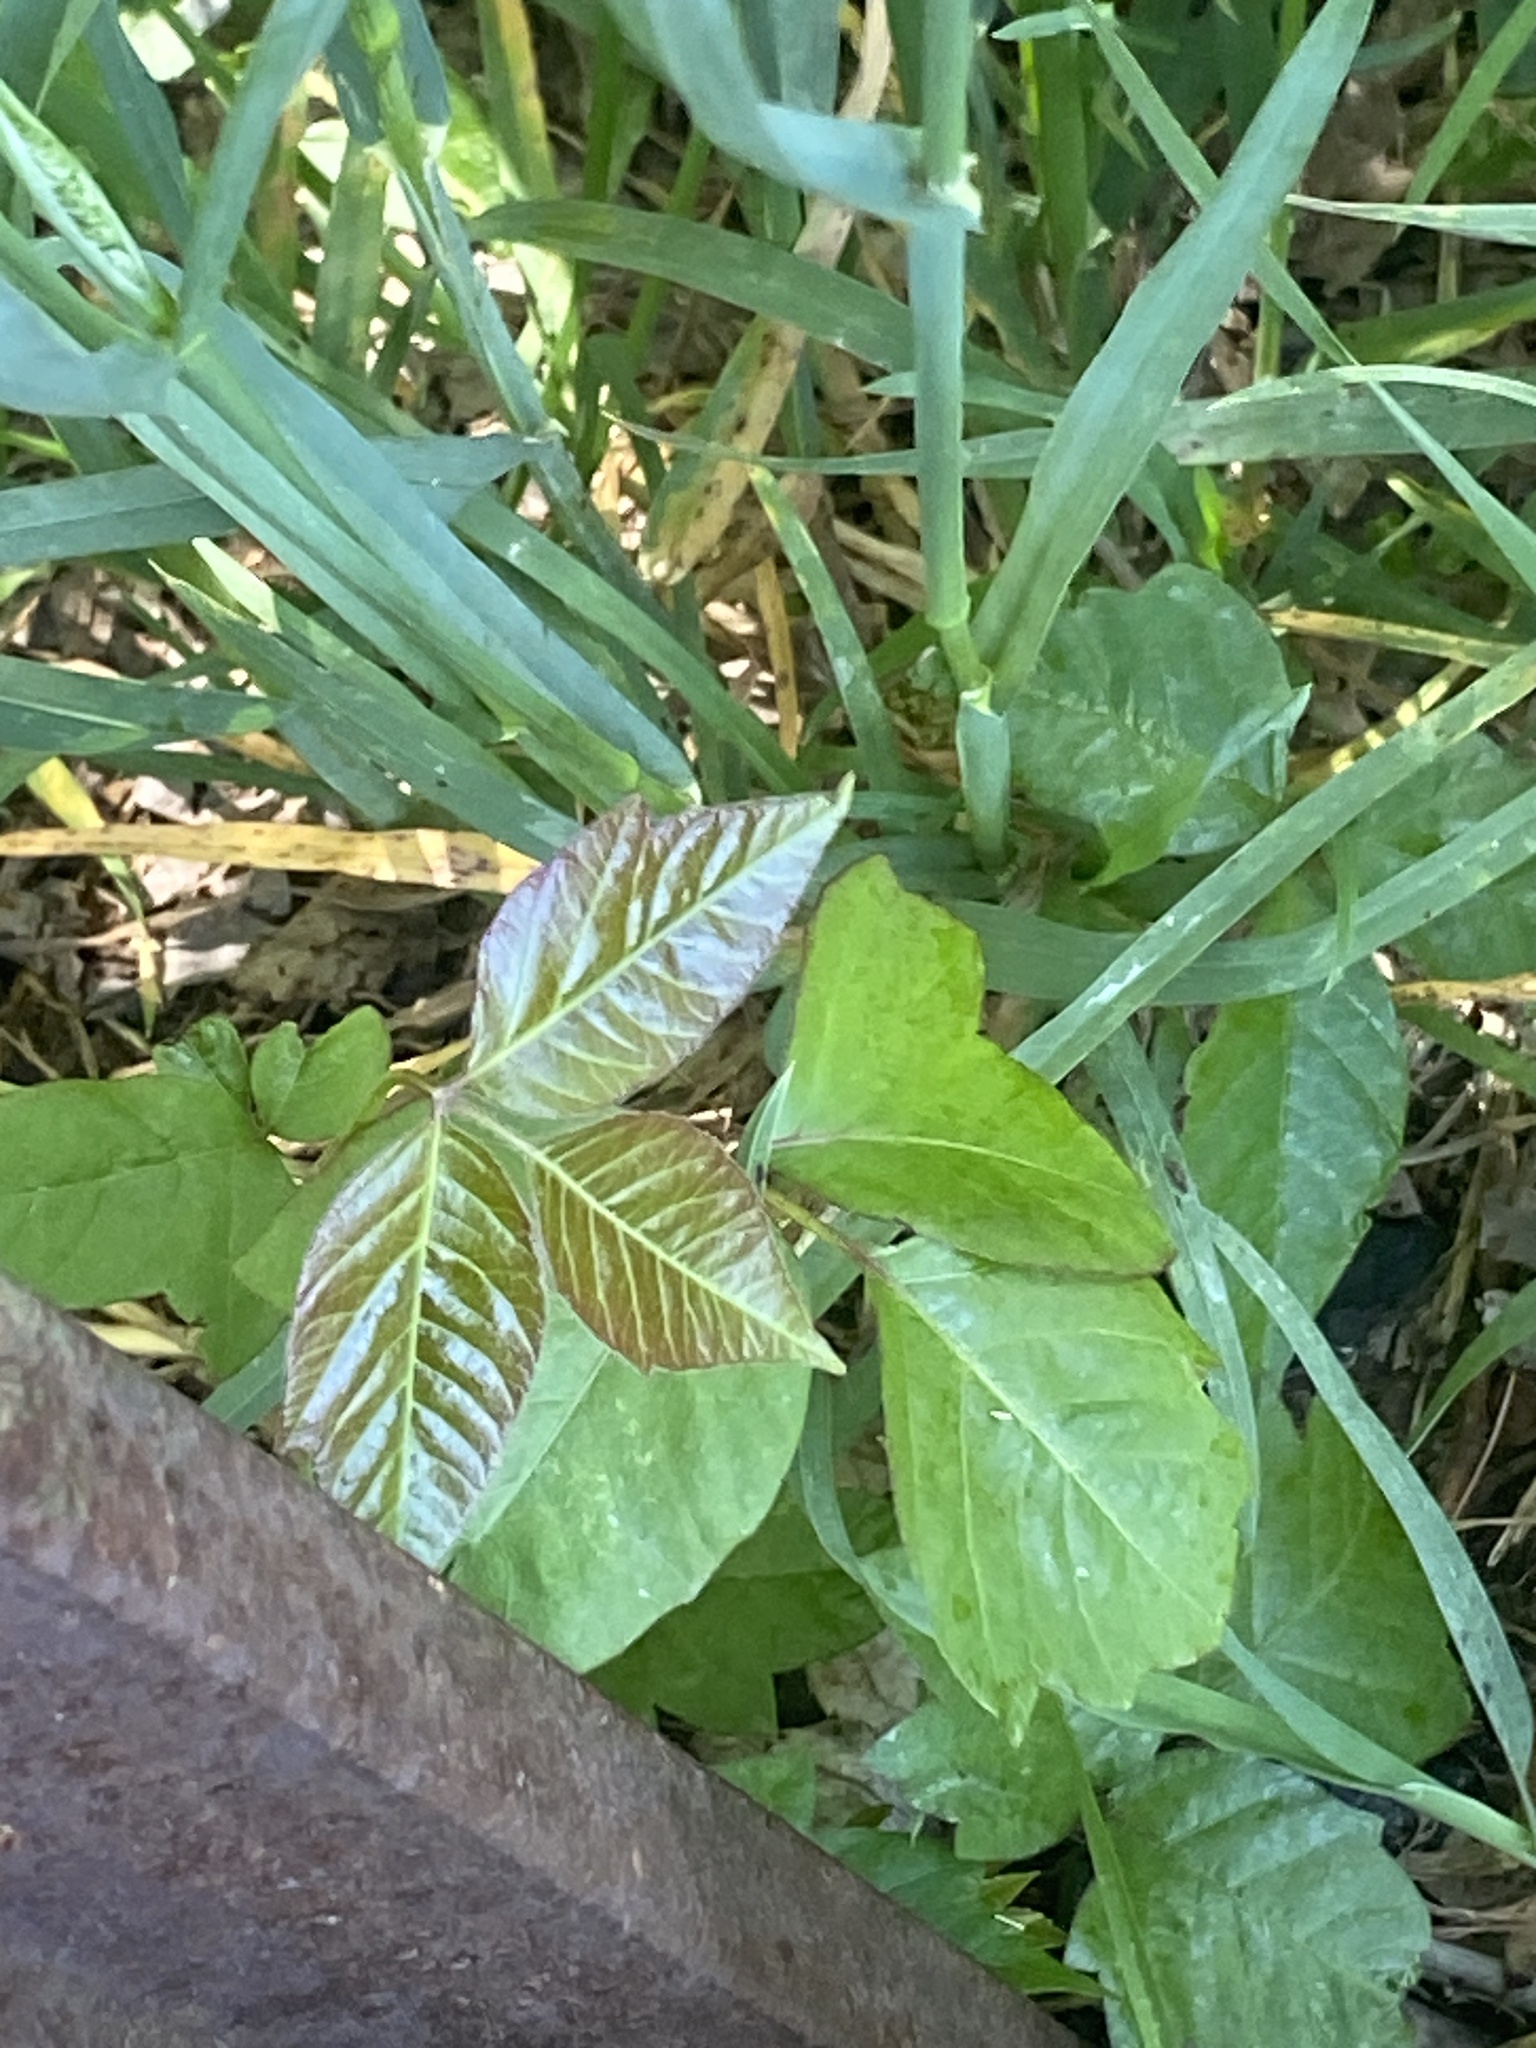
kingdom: Plantae
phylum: Tracheophyta
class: Magnoliopsida
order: Sapindales
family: Anacardiaceae
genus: Toxicodendron
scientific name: Toxicodendron radicans
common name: Poison ivy
